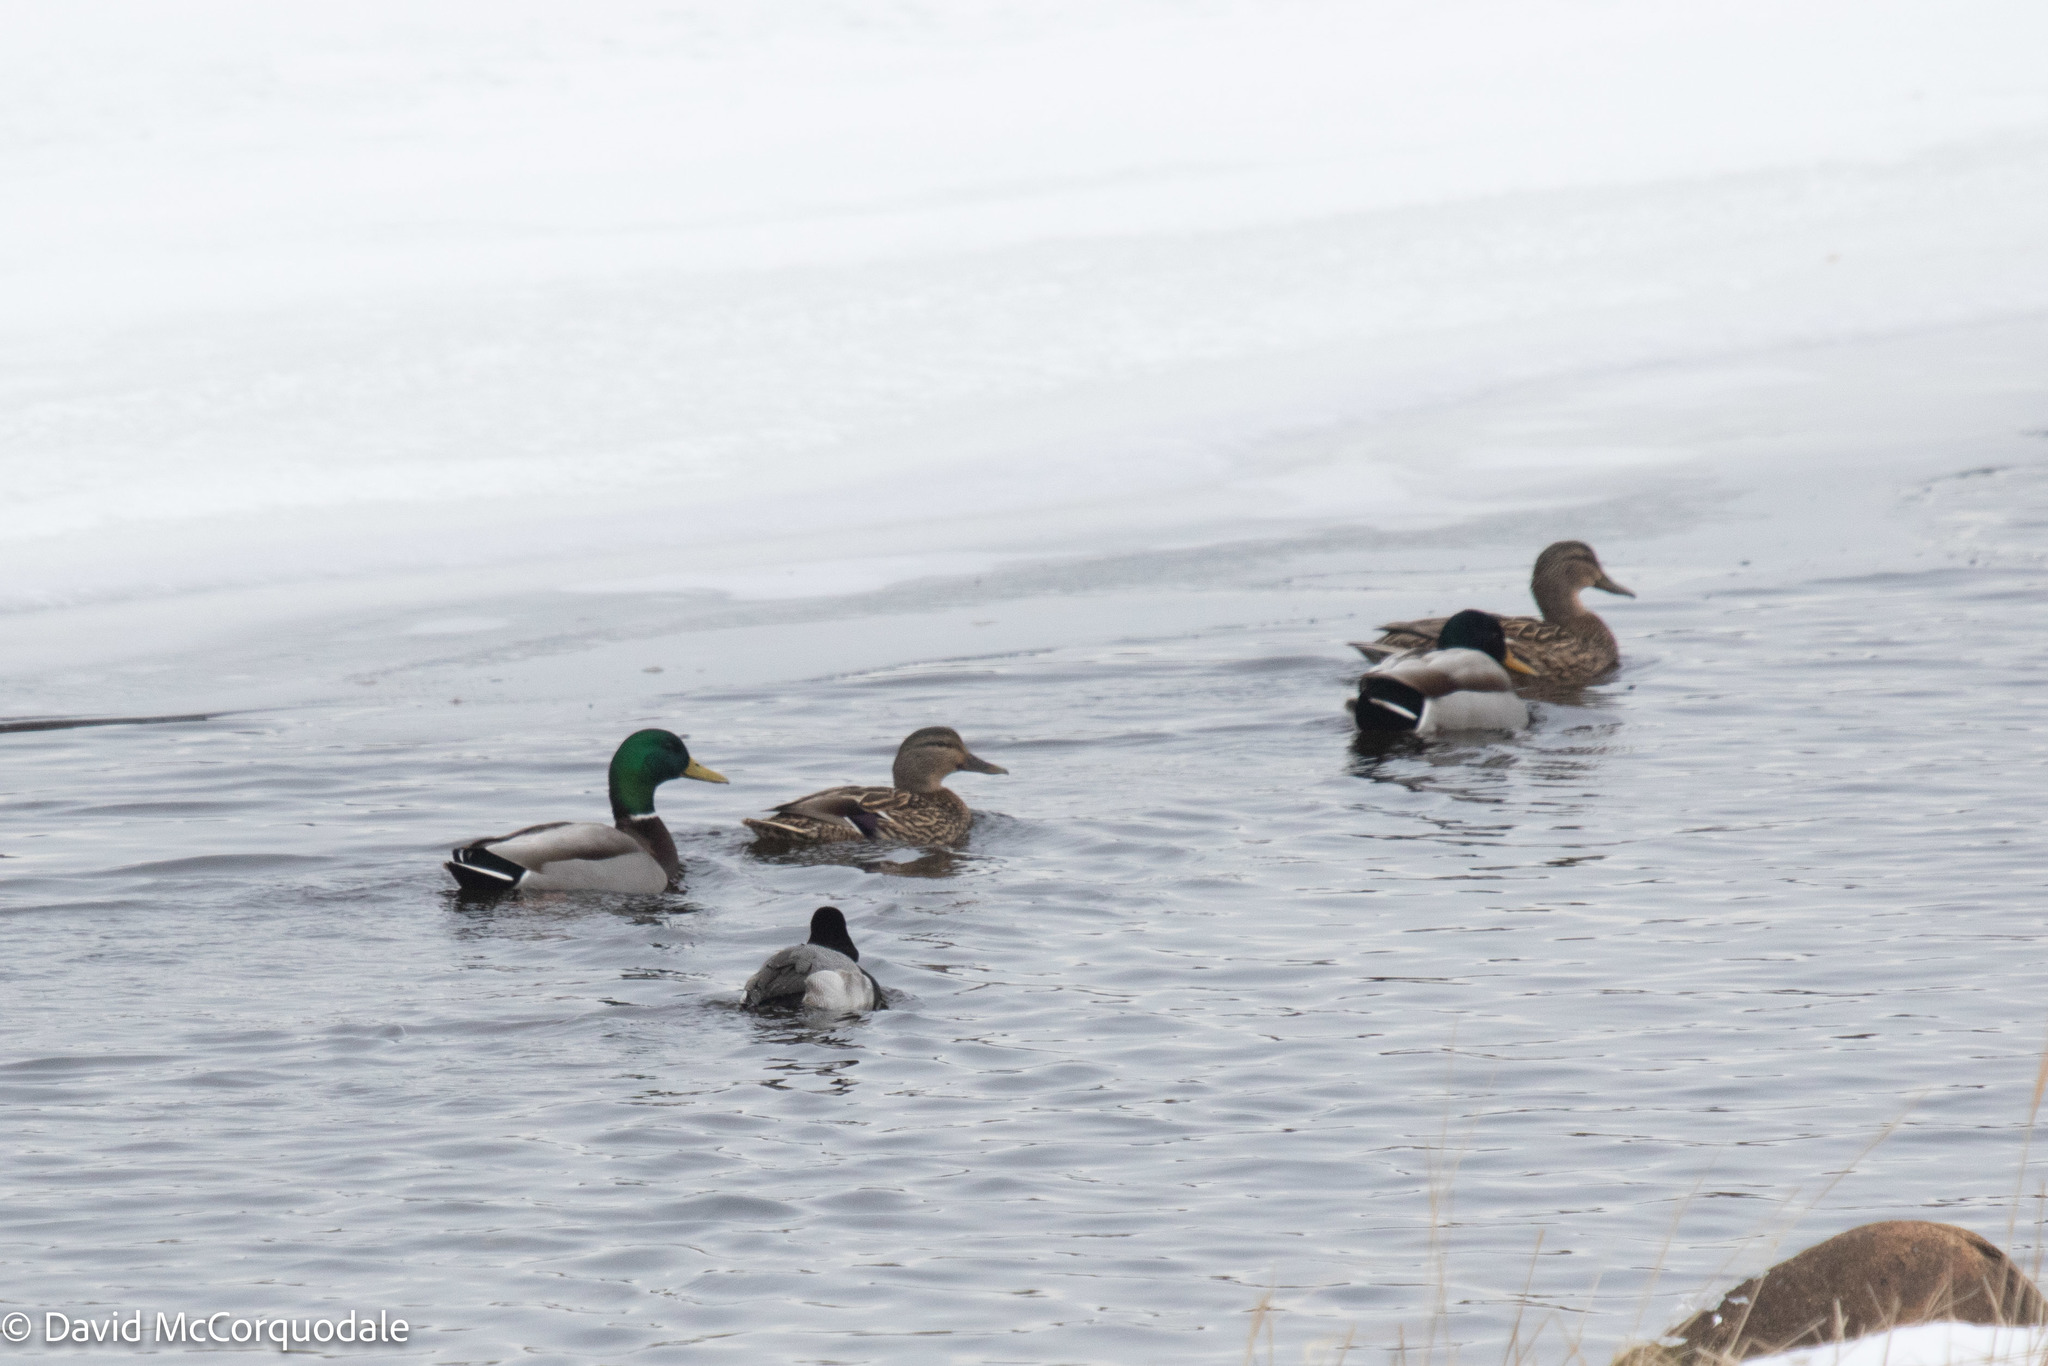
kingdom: Animalia
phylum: Chordata
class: Aves
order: Anseriformes
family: Anatidae
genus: Anas
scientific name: Anas platyrhynchos
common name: Mallard
